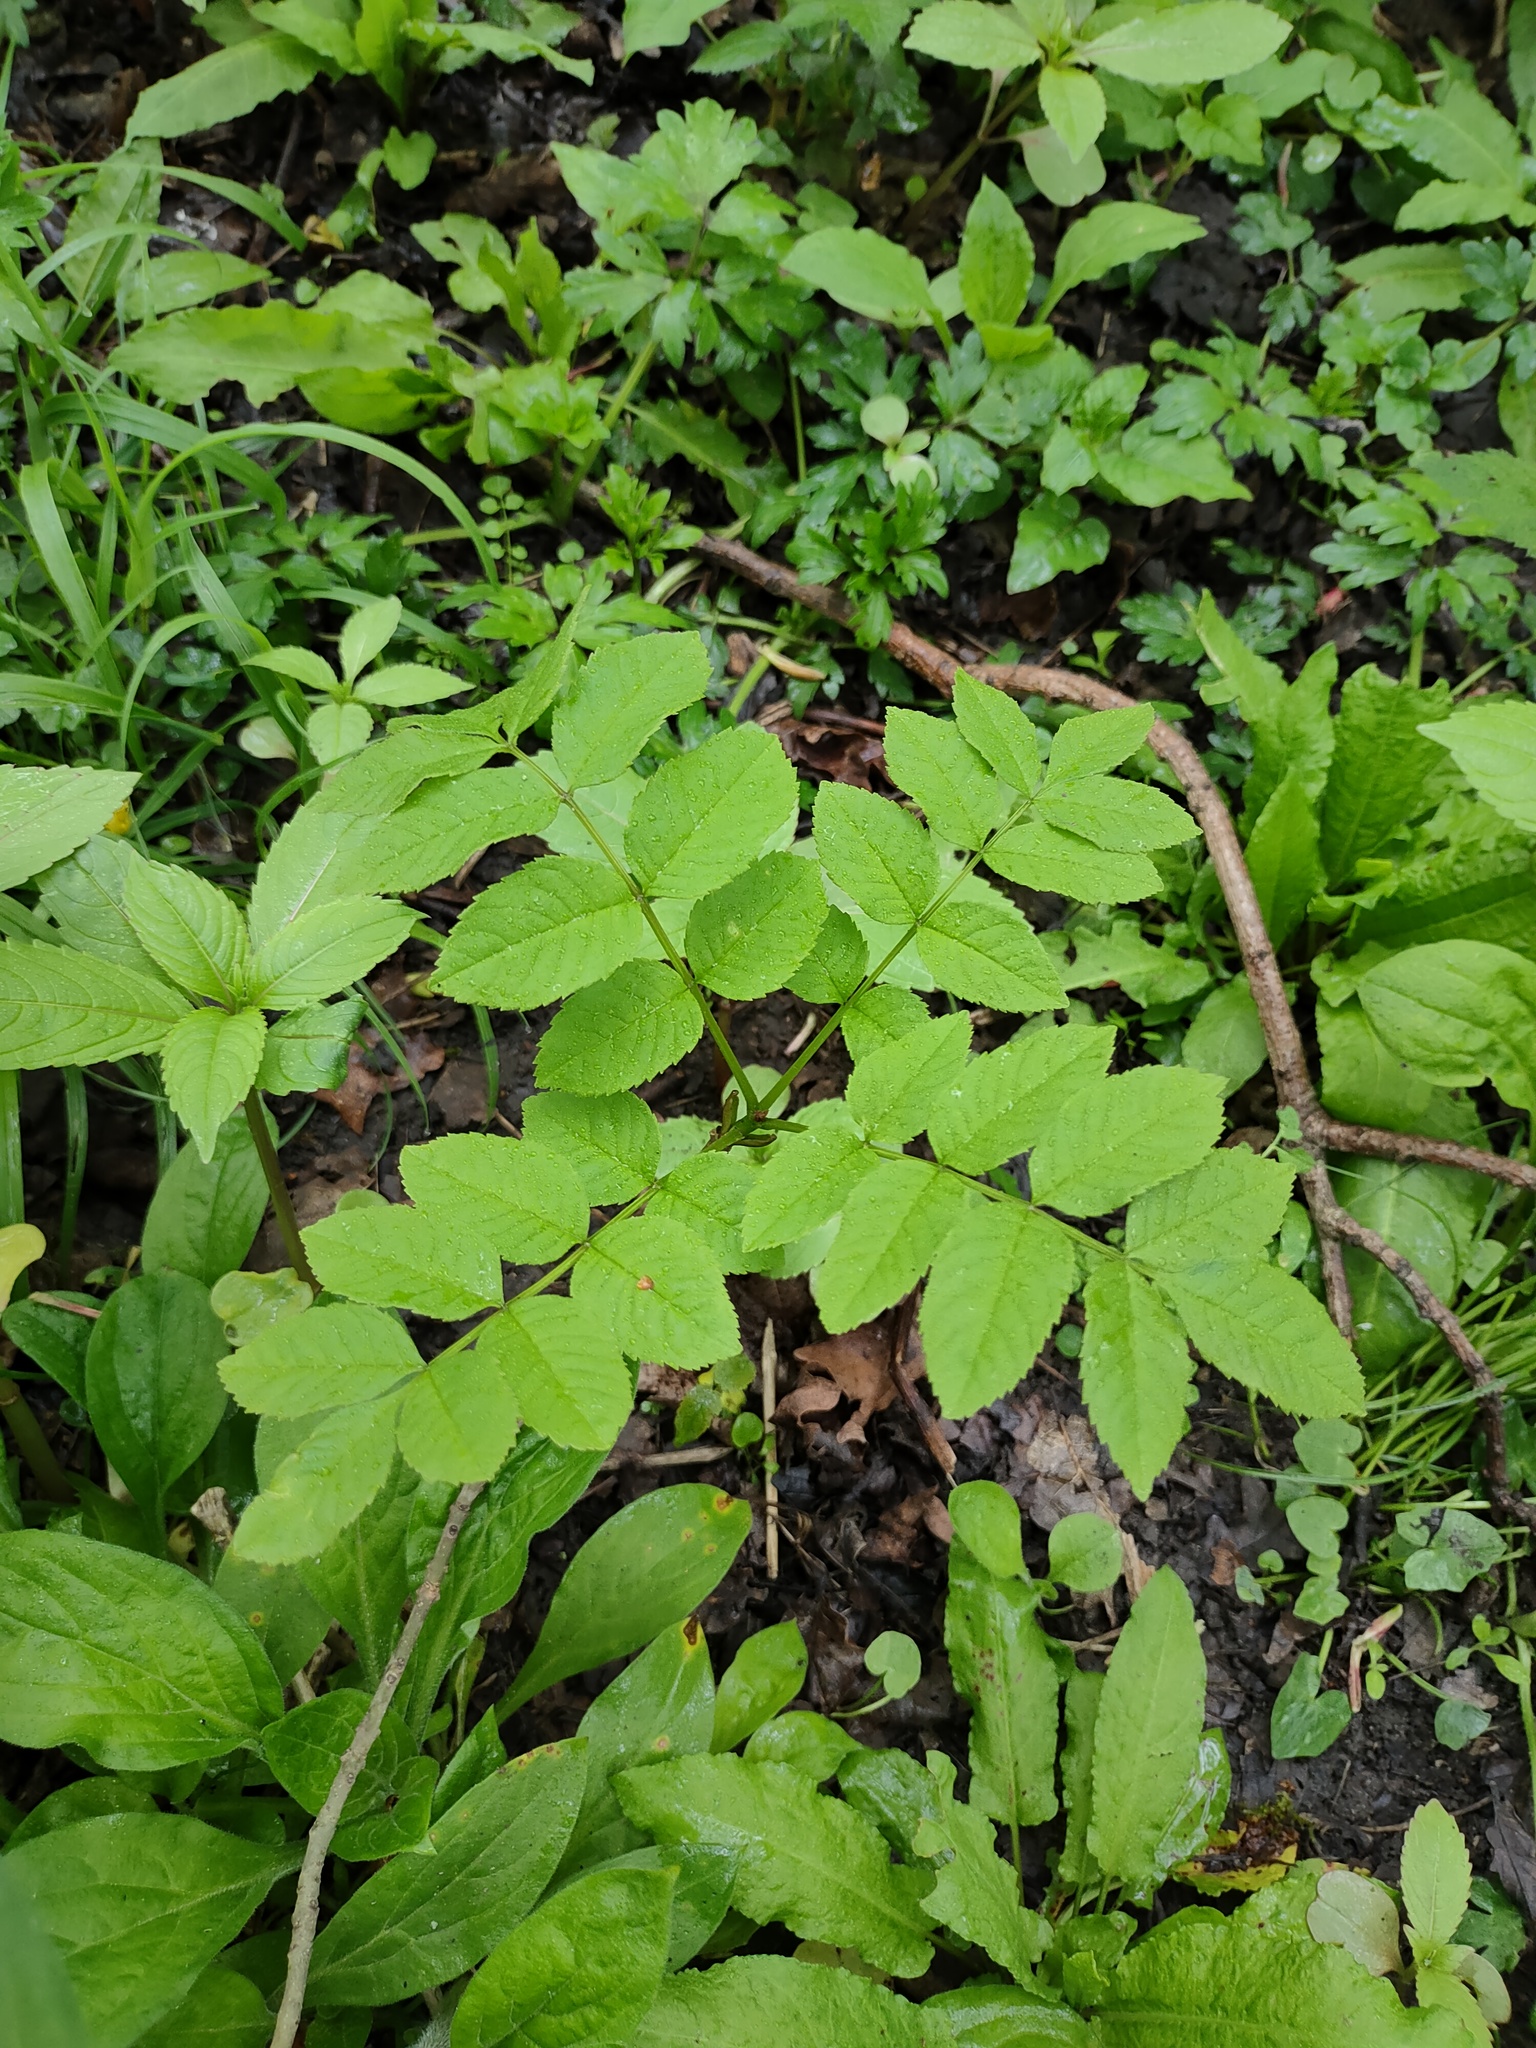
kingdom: Plantae
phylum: Tracheophyta
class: Magnoliopsida
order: Lamiales
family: Oleaceae
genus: Fraxinus
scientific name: Fraxinus excelsior
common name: European ash
